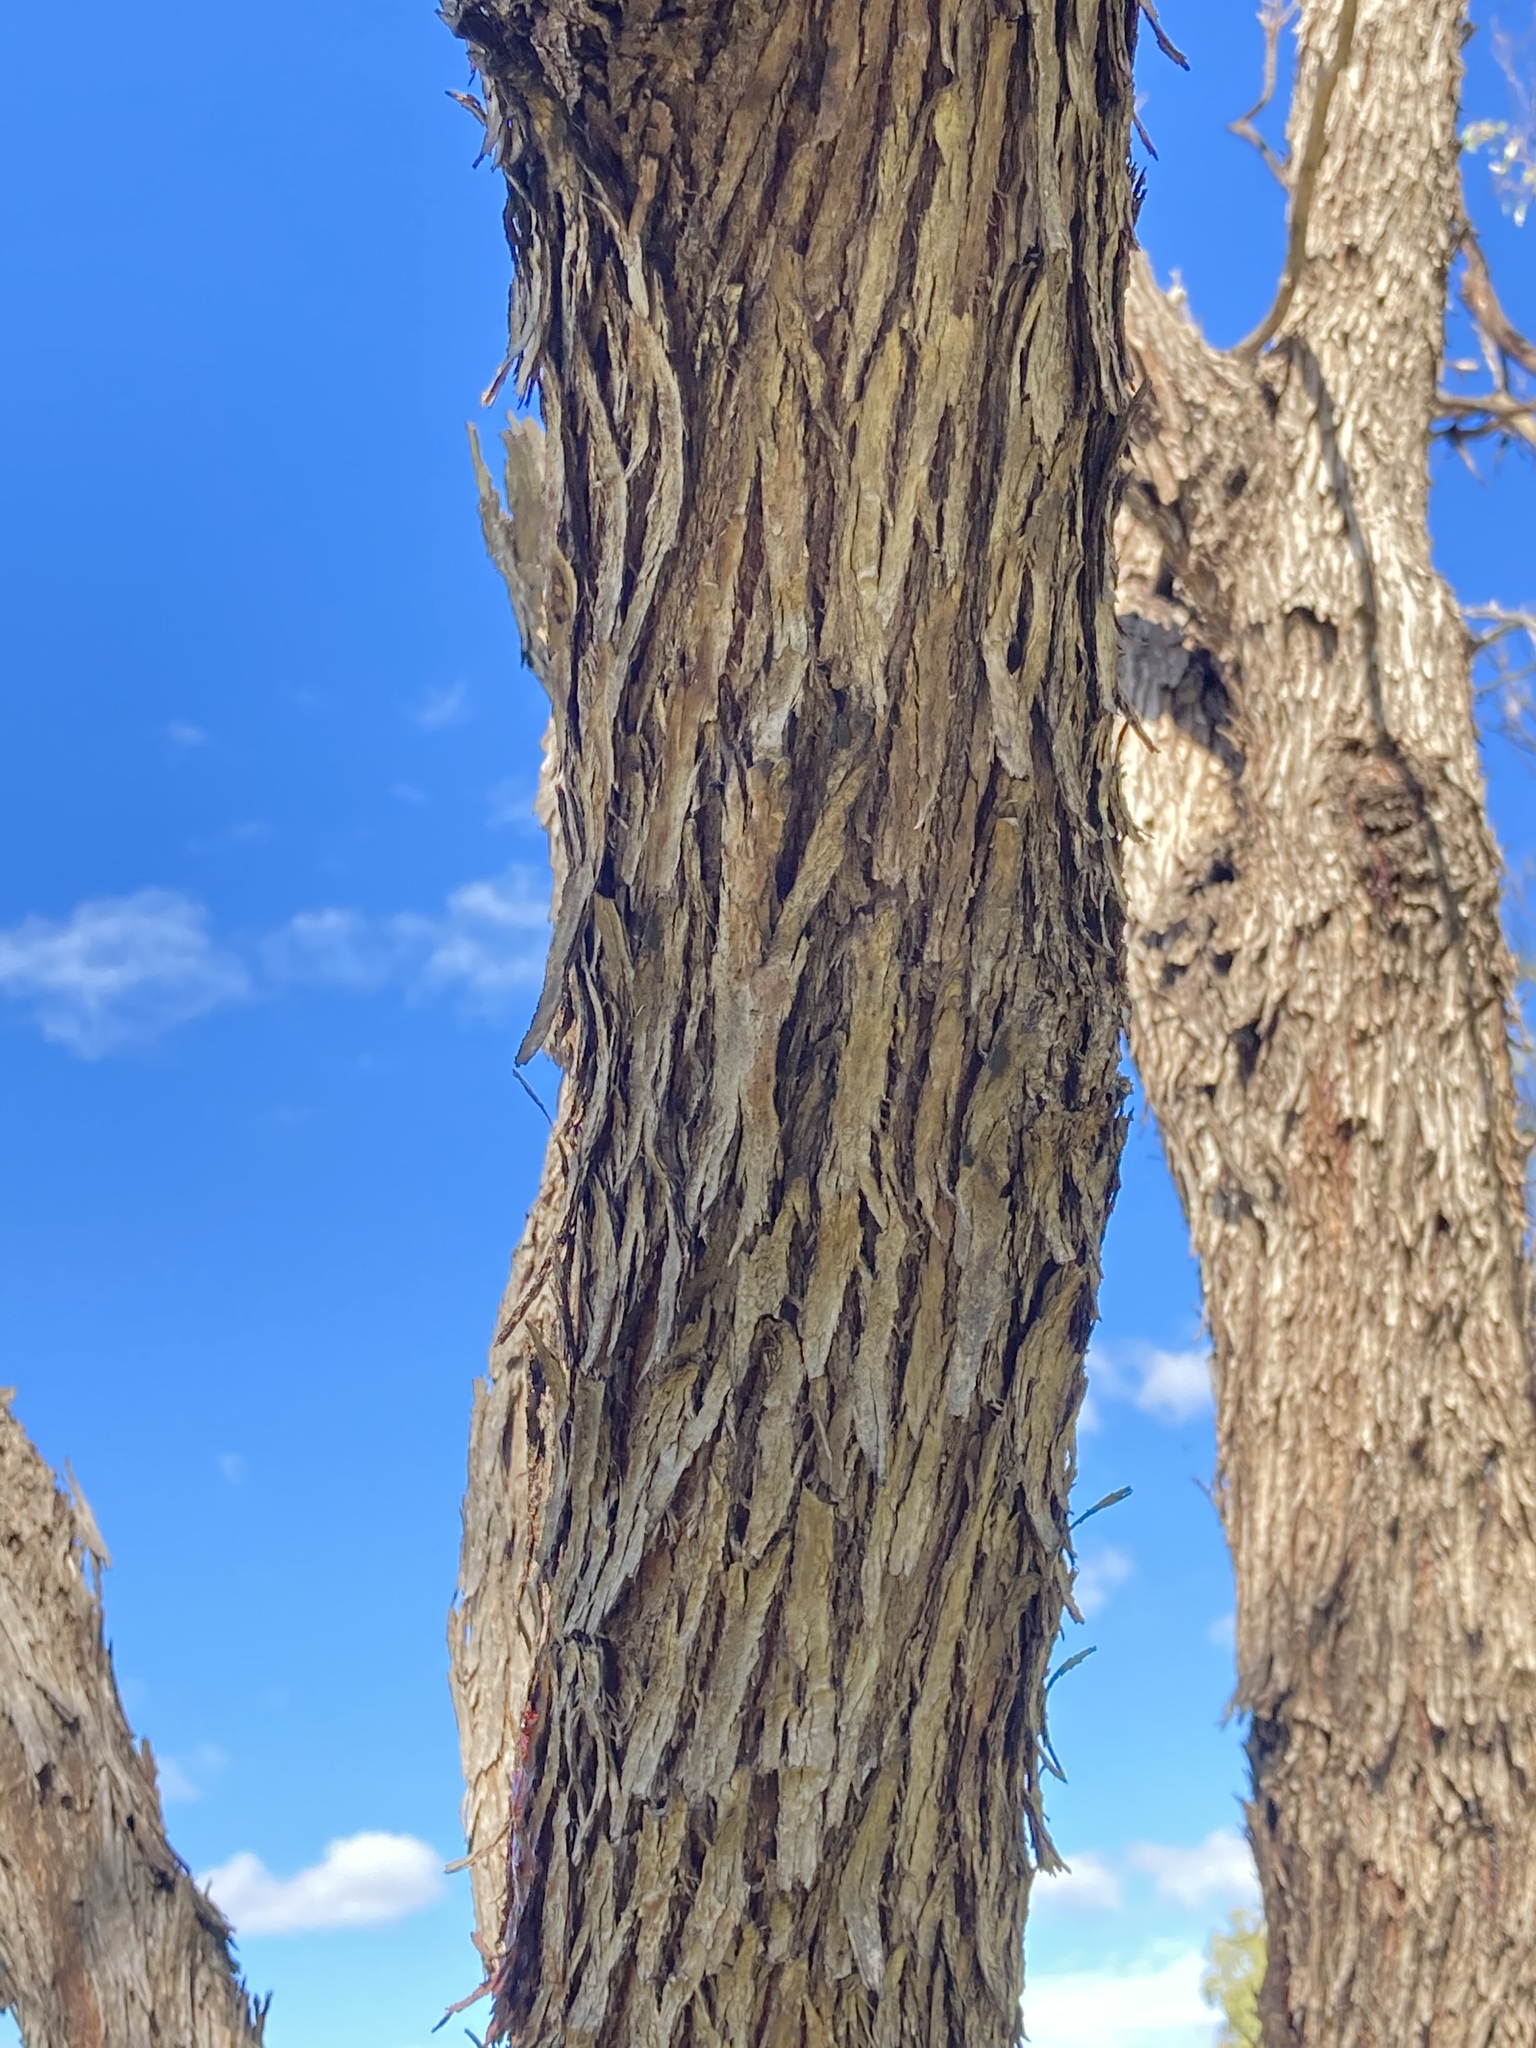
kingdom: Plantae
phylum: Tracheophyta
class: Magnoliopsida
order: Myrtales
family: Myrtaceae
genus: Eucalyptus
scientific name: Eucalyptus loxophleba
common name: York gum
